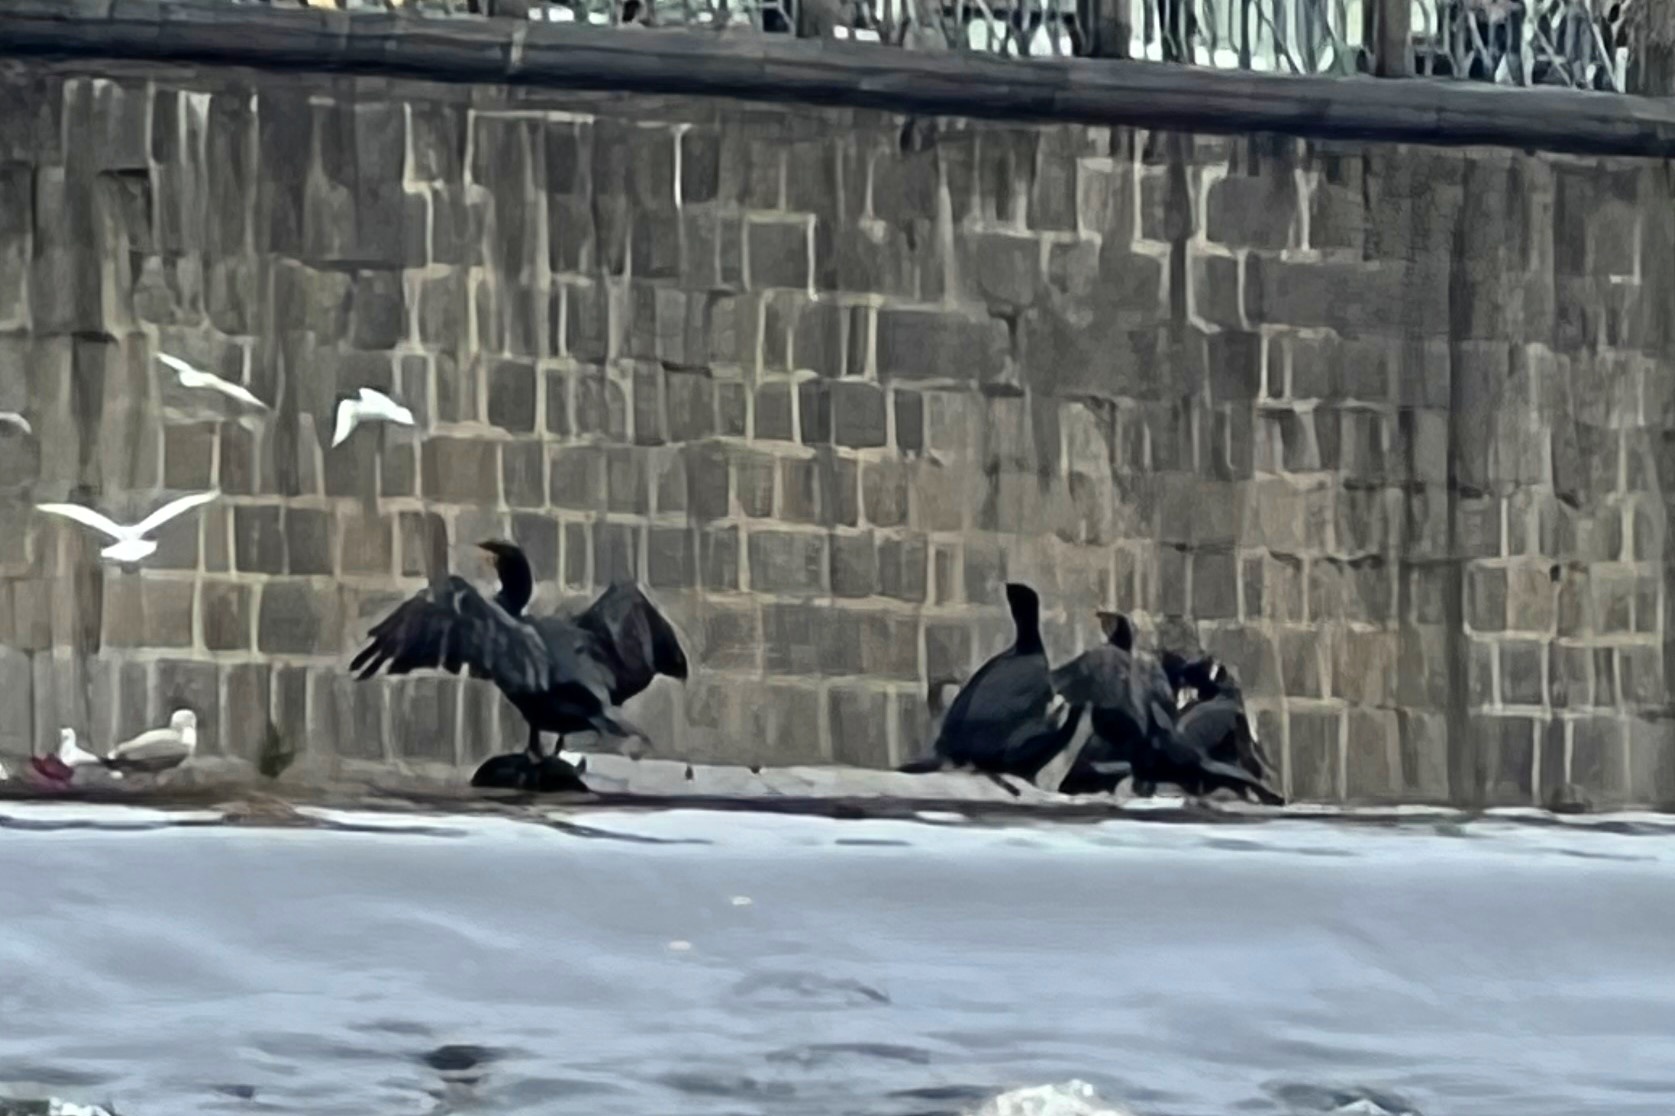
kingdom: Animalia
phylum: Chordata
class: Aves
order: Suliformes
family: Phalacrocoracidae
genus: Phalacrocorax
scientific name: Phalacrocorax carbo
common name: Great cormorant
